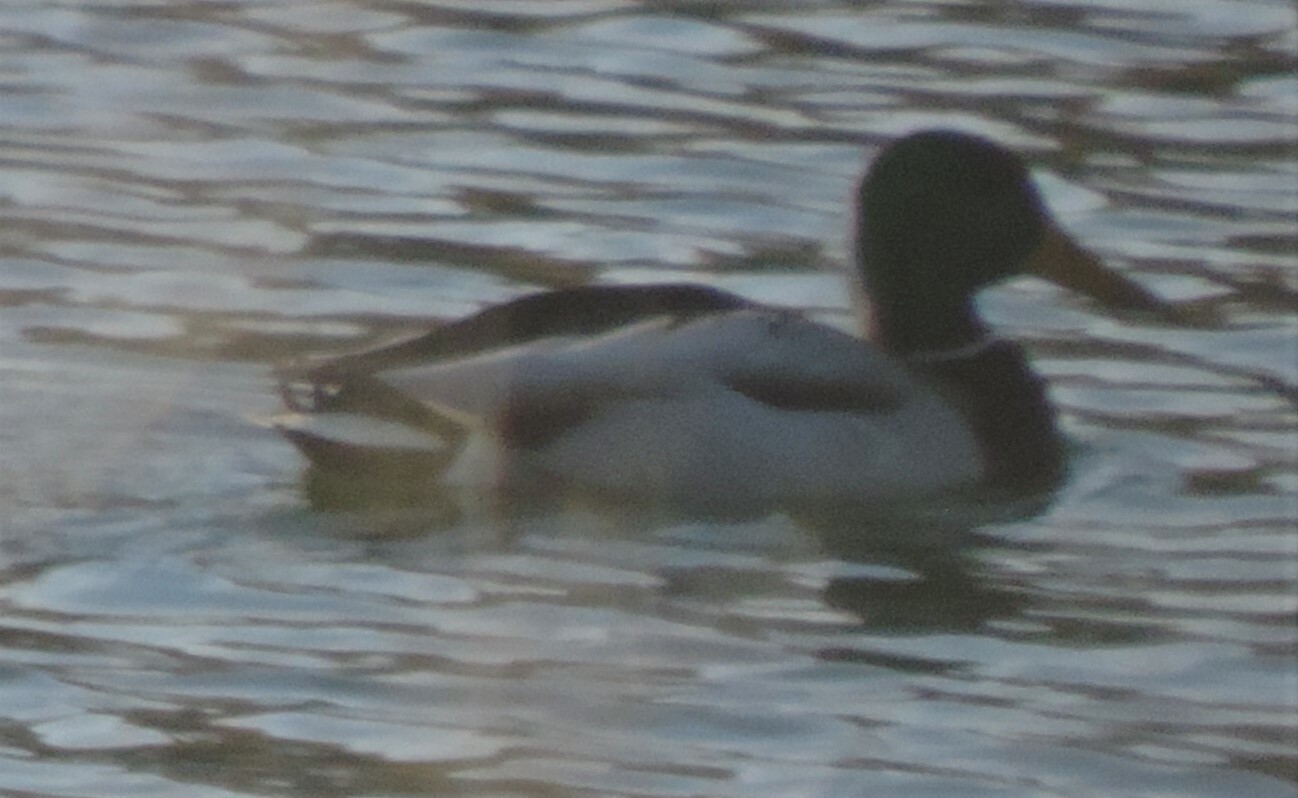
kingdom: Animalia
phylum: Chordata
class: Aves
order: Anseriformes
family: Anatidae
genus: Anas
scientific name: Anas platyrhynchos
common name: Mallard
